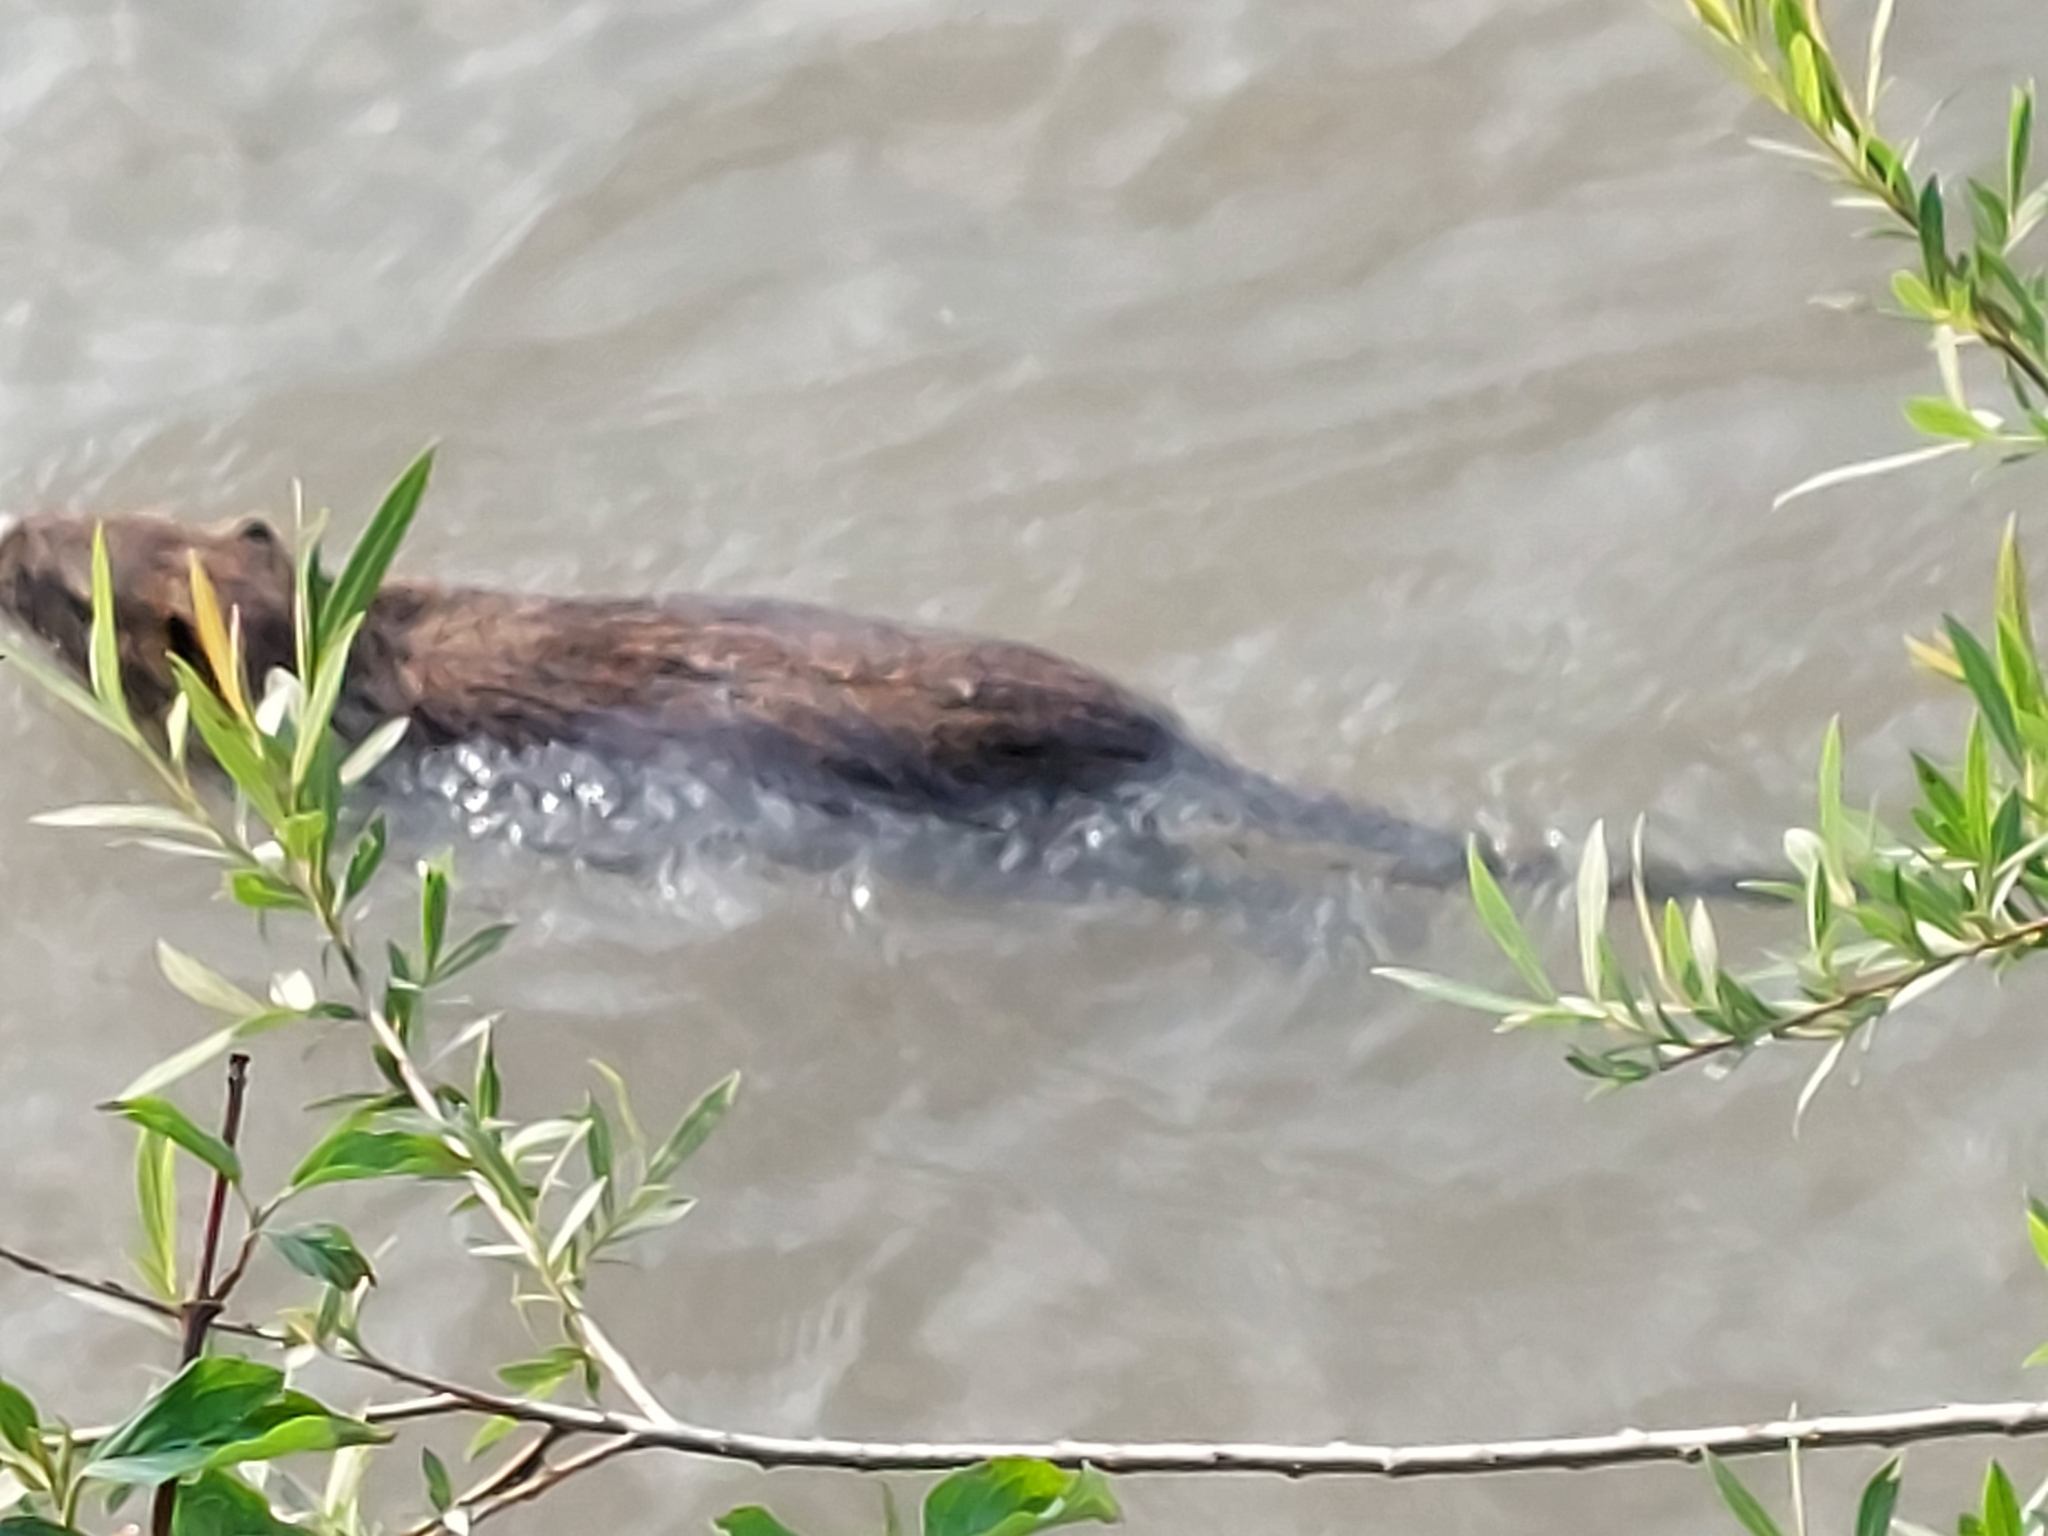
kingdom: Animalia
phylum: Chordata
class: Mammalia
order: Rodentia
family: Myocastoridae
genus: Myocastor
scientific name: Myocastor coypus
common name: Coypu
